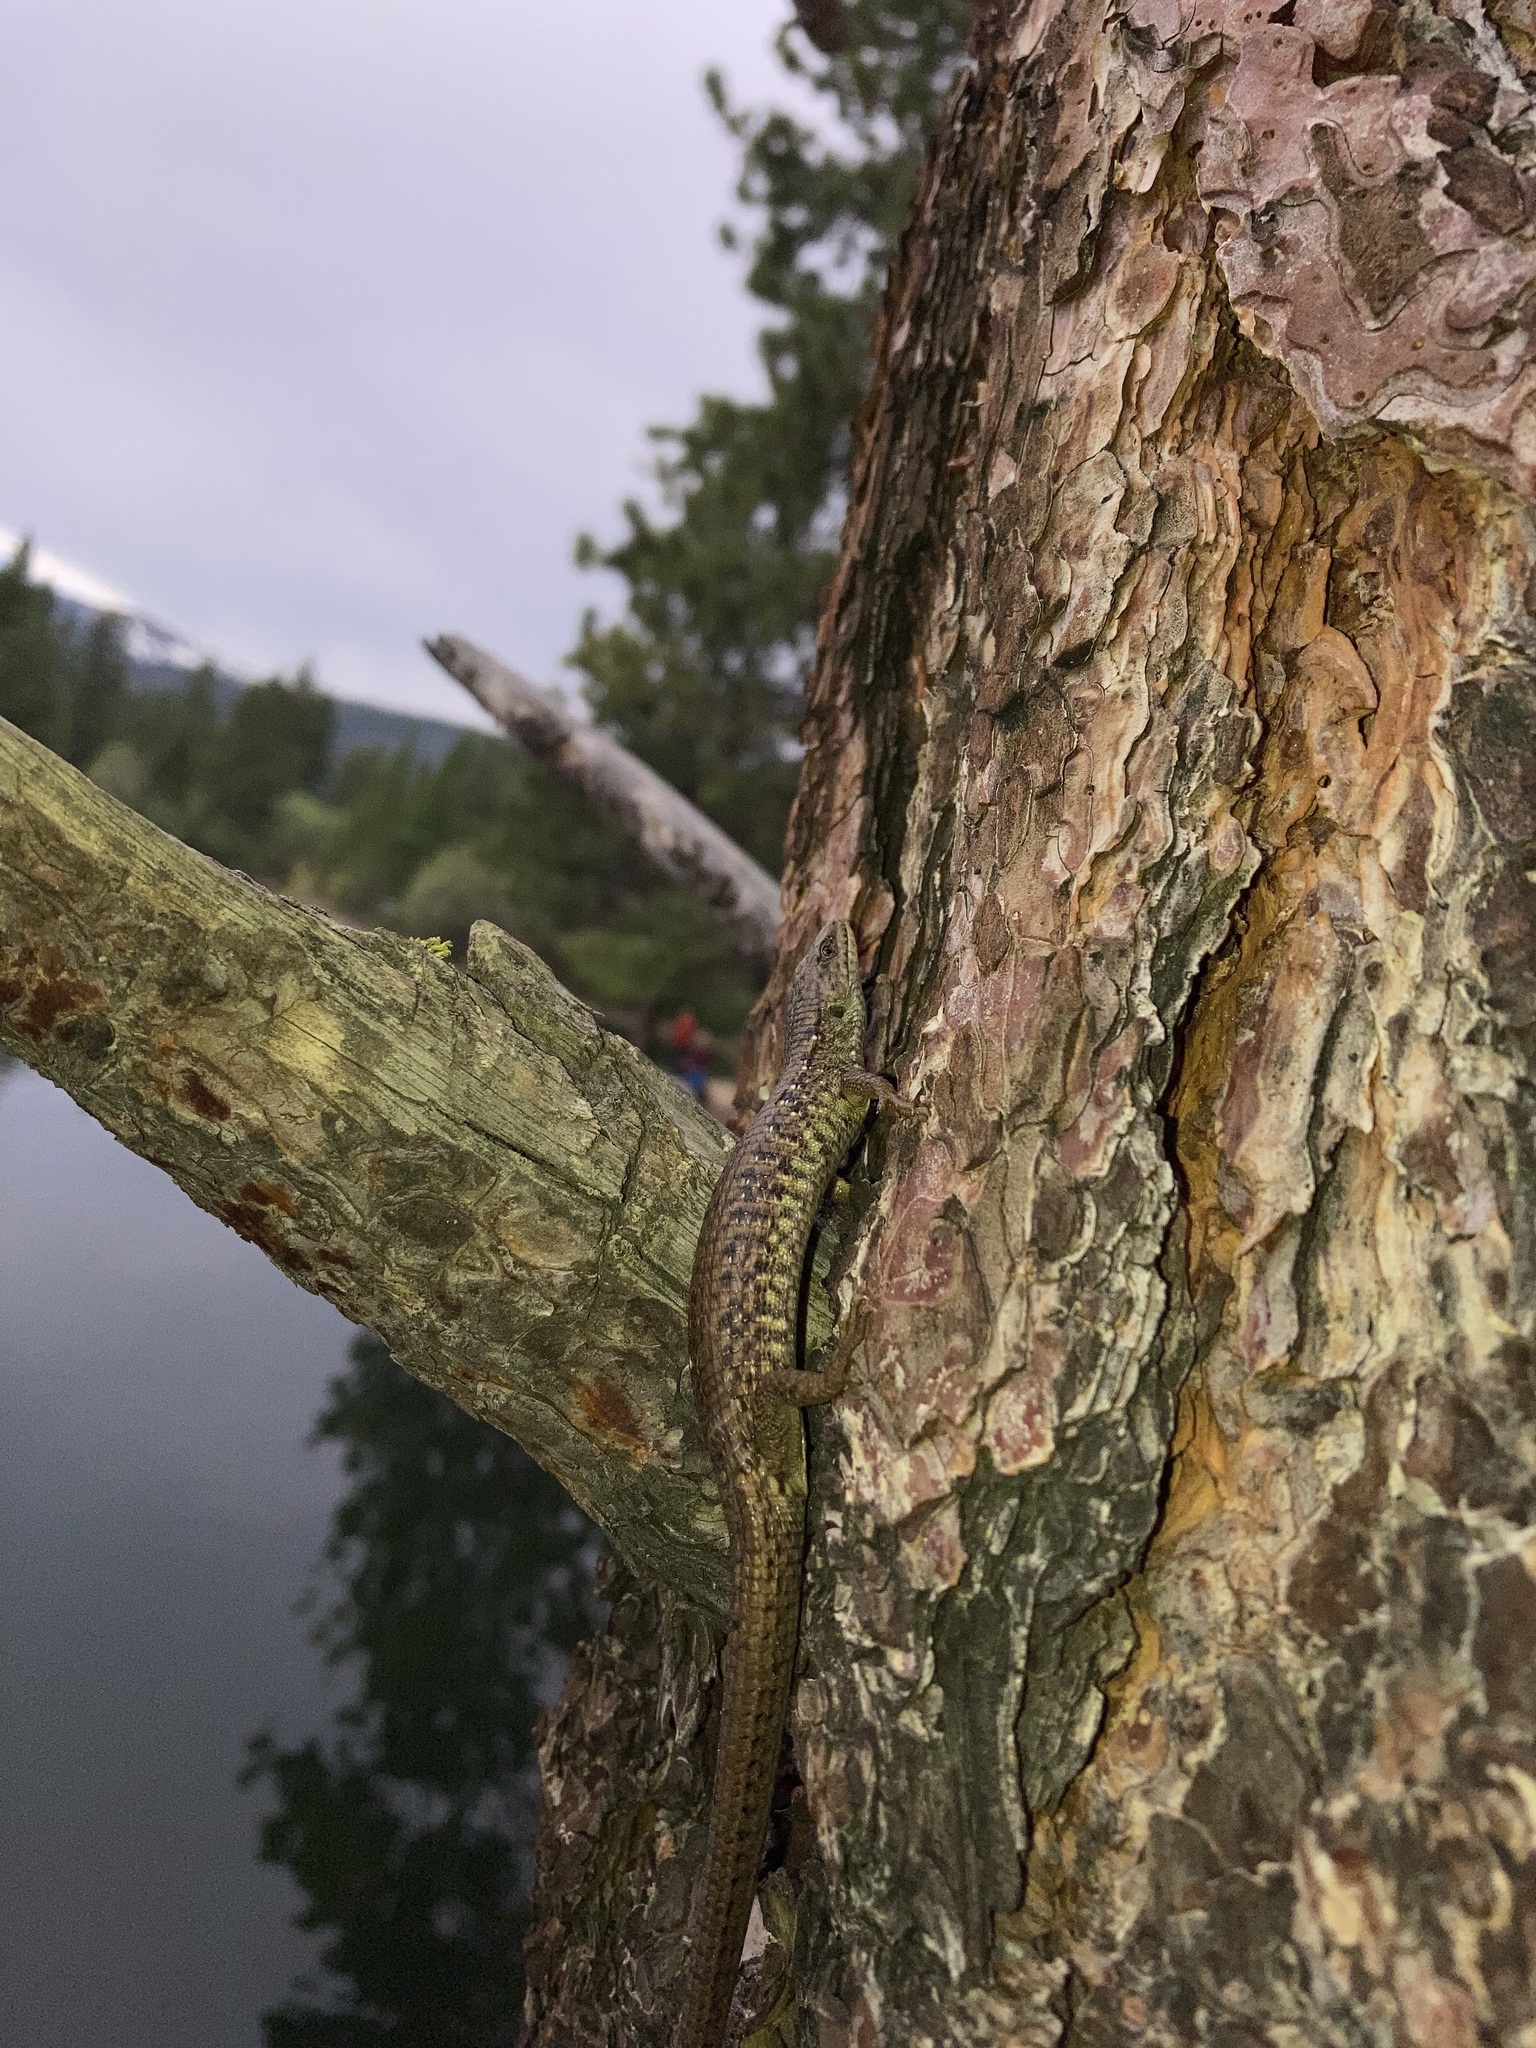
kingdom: Animalia
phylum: Chordata
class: Squamata
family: Anguidae
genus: Elgaria
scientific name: Elgaria coerulea
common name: Northern alligator lizard
